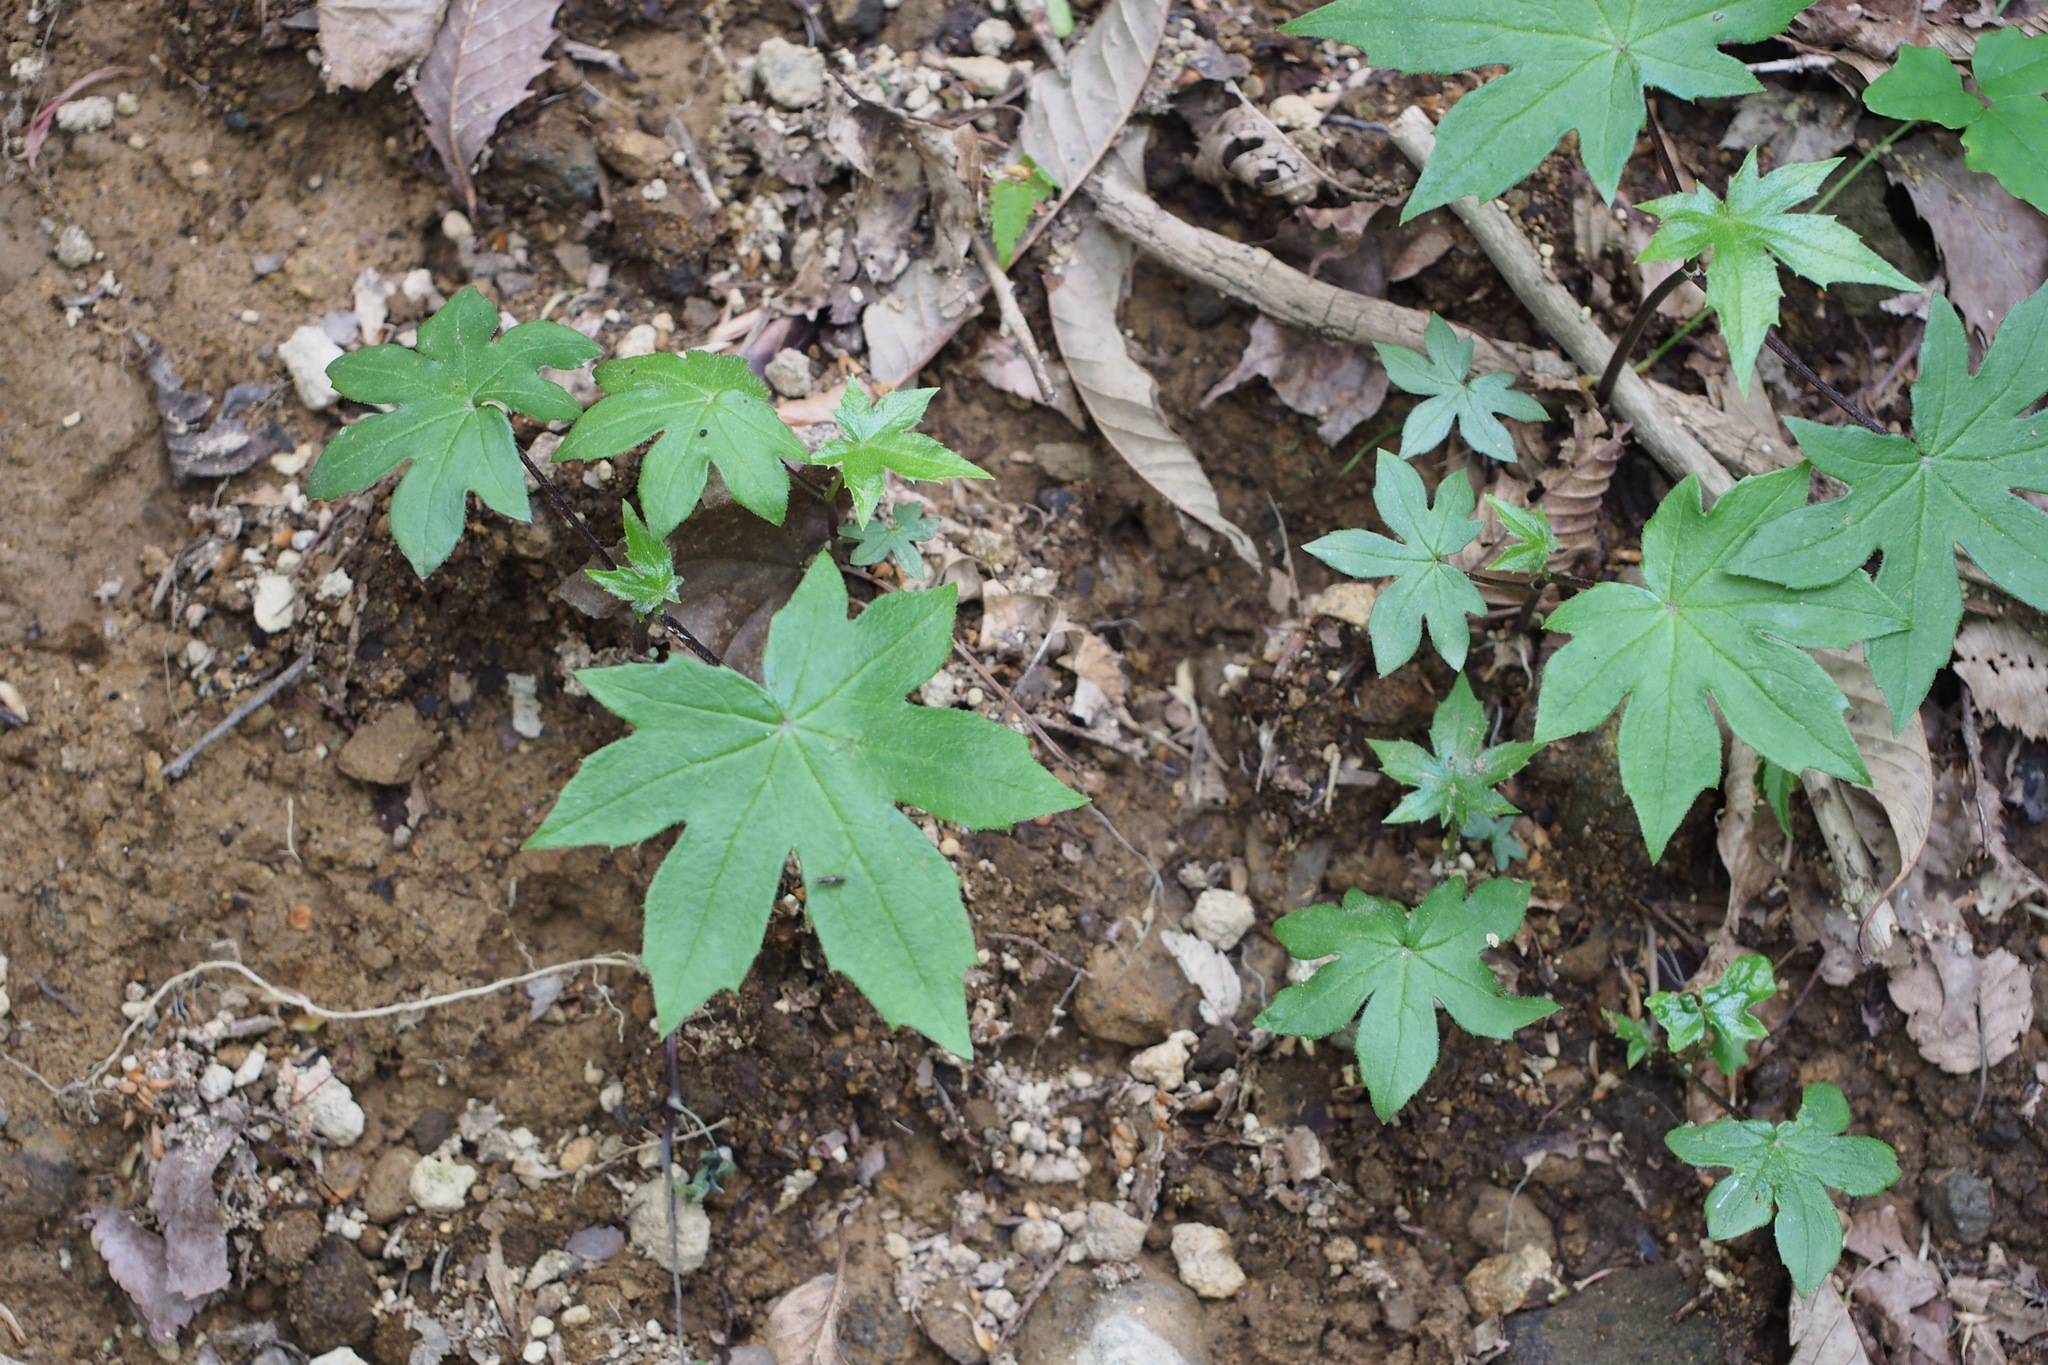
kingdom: Plantae
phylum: Tracheophyta
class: Magnoliopsida
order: Asterales
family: Asteraceae
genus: Japonicalia
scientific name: Japonicalia delphiniifolia
